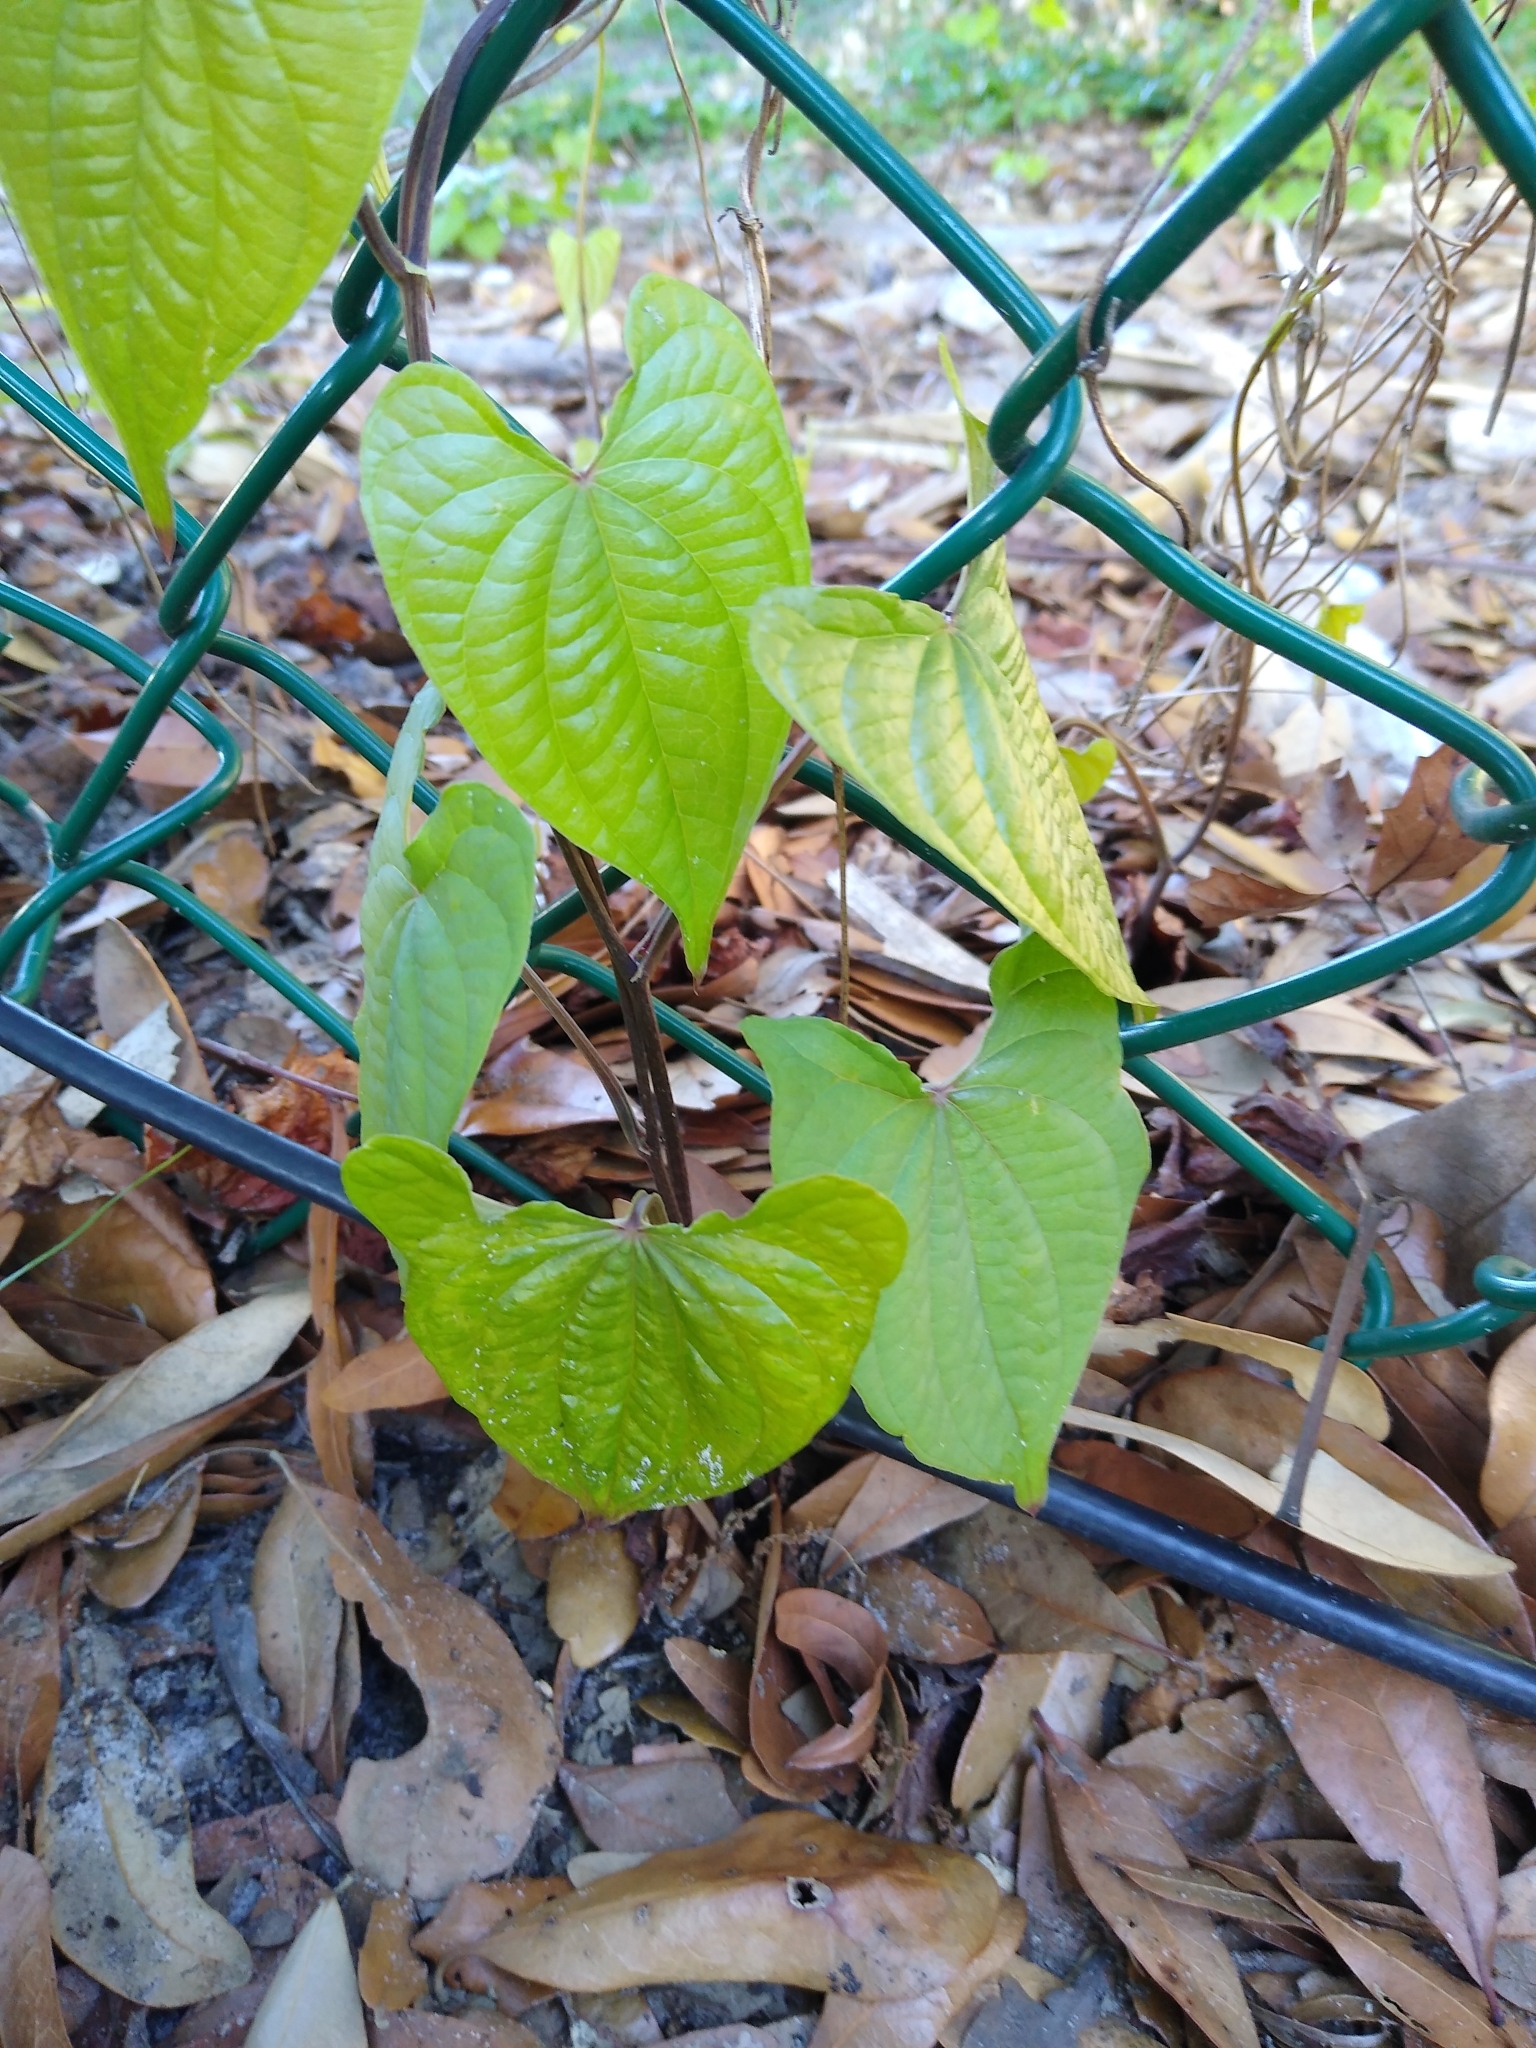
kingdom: Plantae
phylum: Tracheophyta
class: Liliopsida
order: Dioscoreales
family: Dioscoreaceae
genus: Dioscorea
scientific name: Dioscorea bulbifera
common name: Air yam
